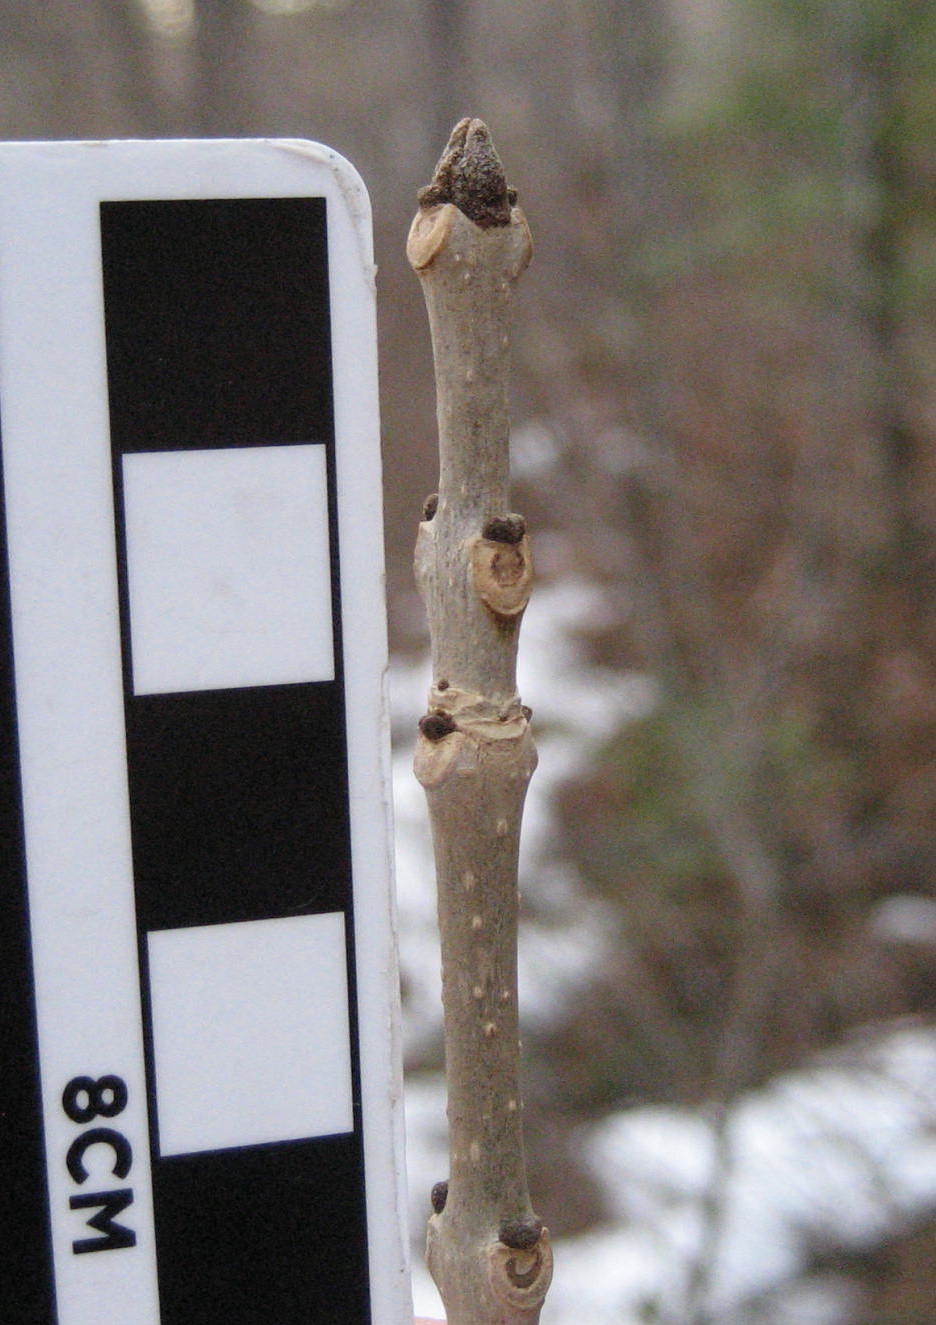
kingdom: Plantae
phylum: Tracheophyta
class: Magnoliopsida
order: Lamiales
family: Oleaceae
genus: Fraxinus
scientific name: Fraxinus pennsylvanica
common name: Green ash
